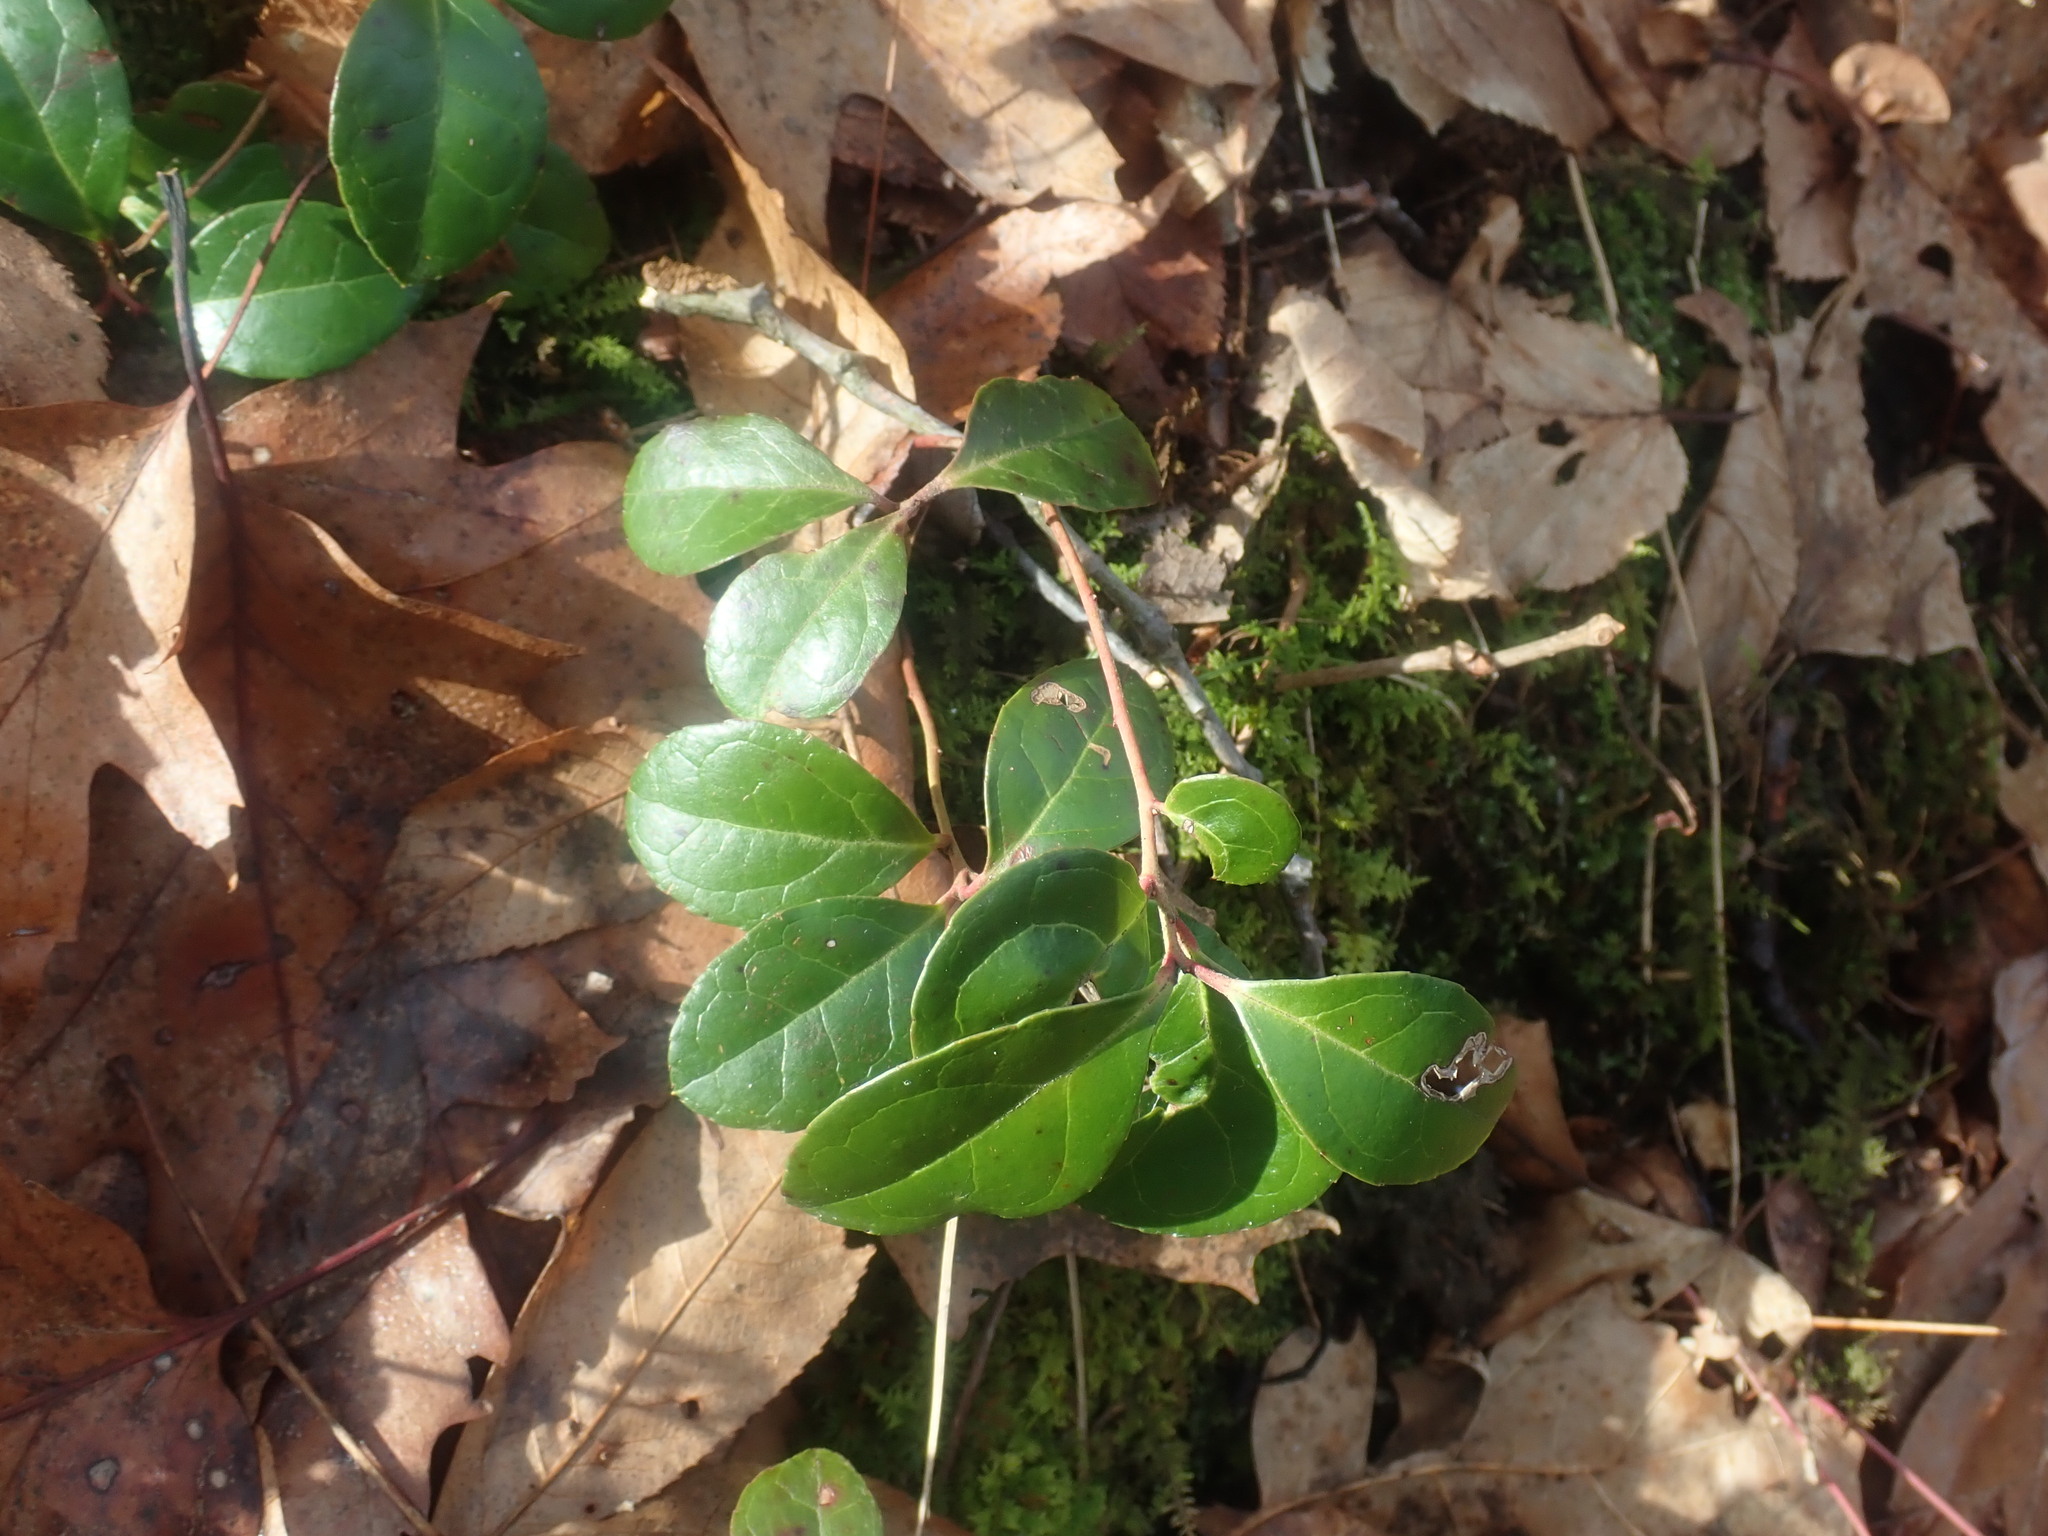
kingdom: Plantae
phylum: Tracheophyta
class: Magnoliopsida
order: Ericales
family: Ericaceae
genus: Gaultheria
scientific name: Gaultheria procumbens
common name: Checkerberry
